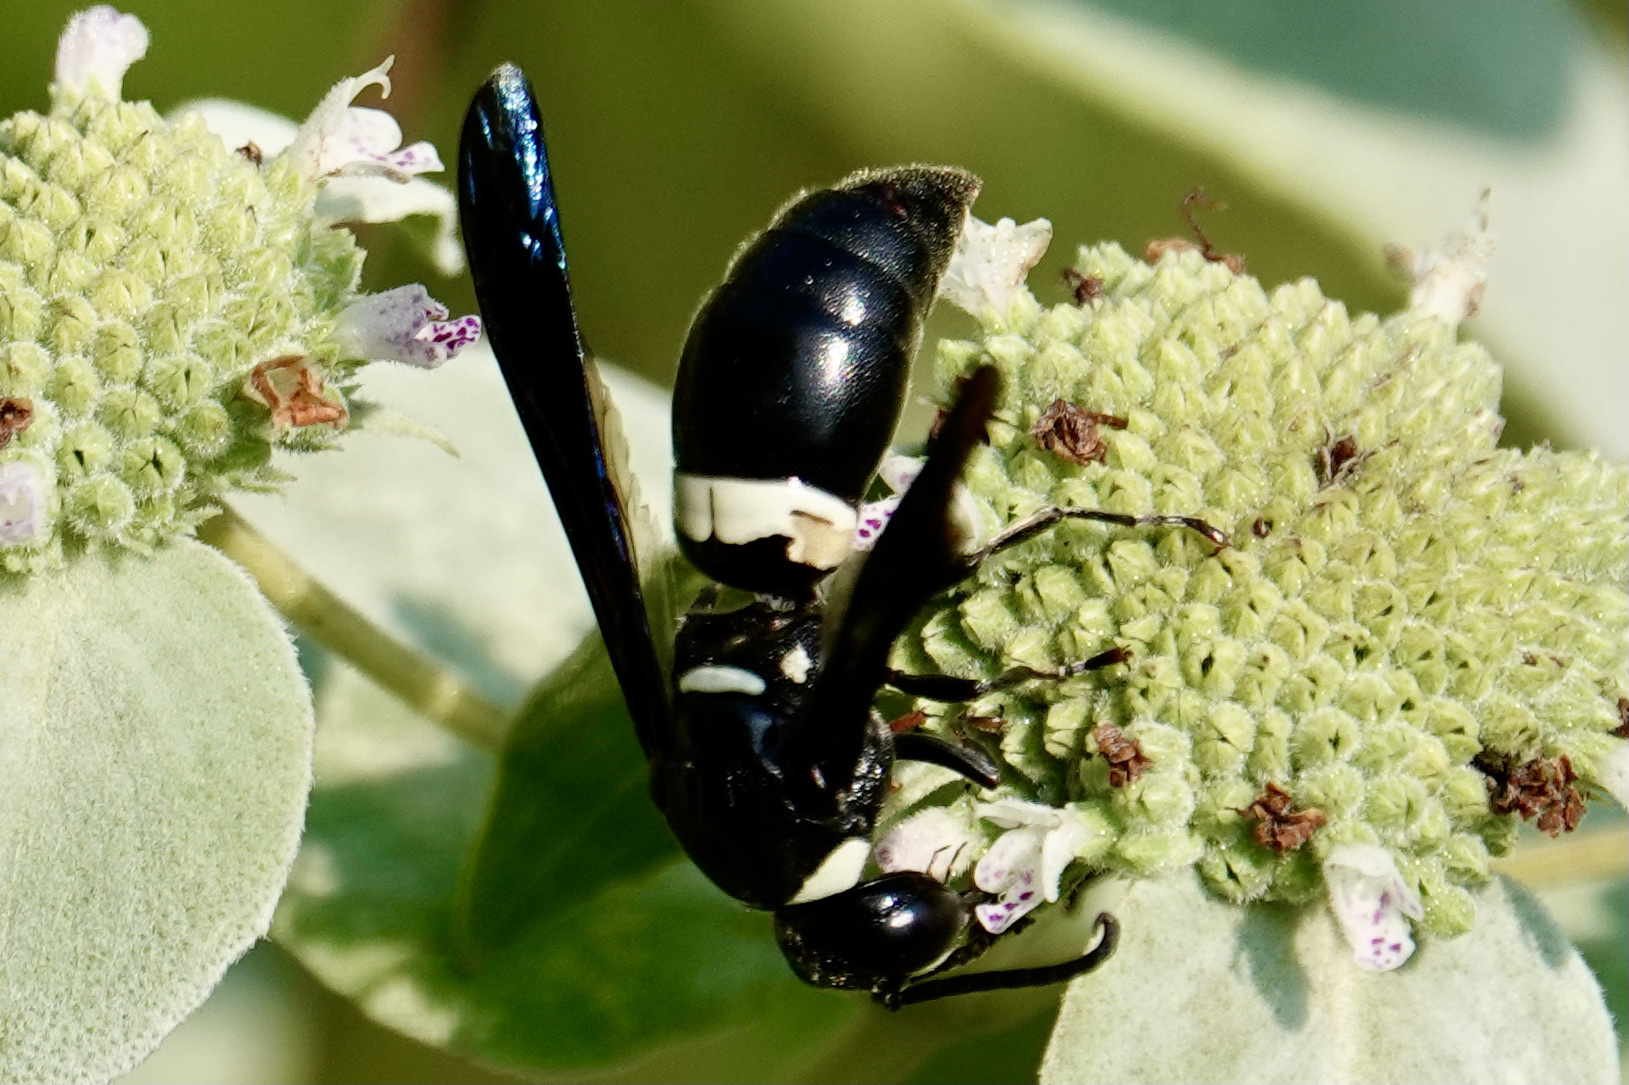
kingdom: Animalia
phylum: Arthropoda
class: Insecta
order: Hymenoptera
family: Eumenidae
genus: Monobia
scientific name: Monobia quadridens
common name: Four-toothed mason wasp
